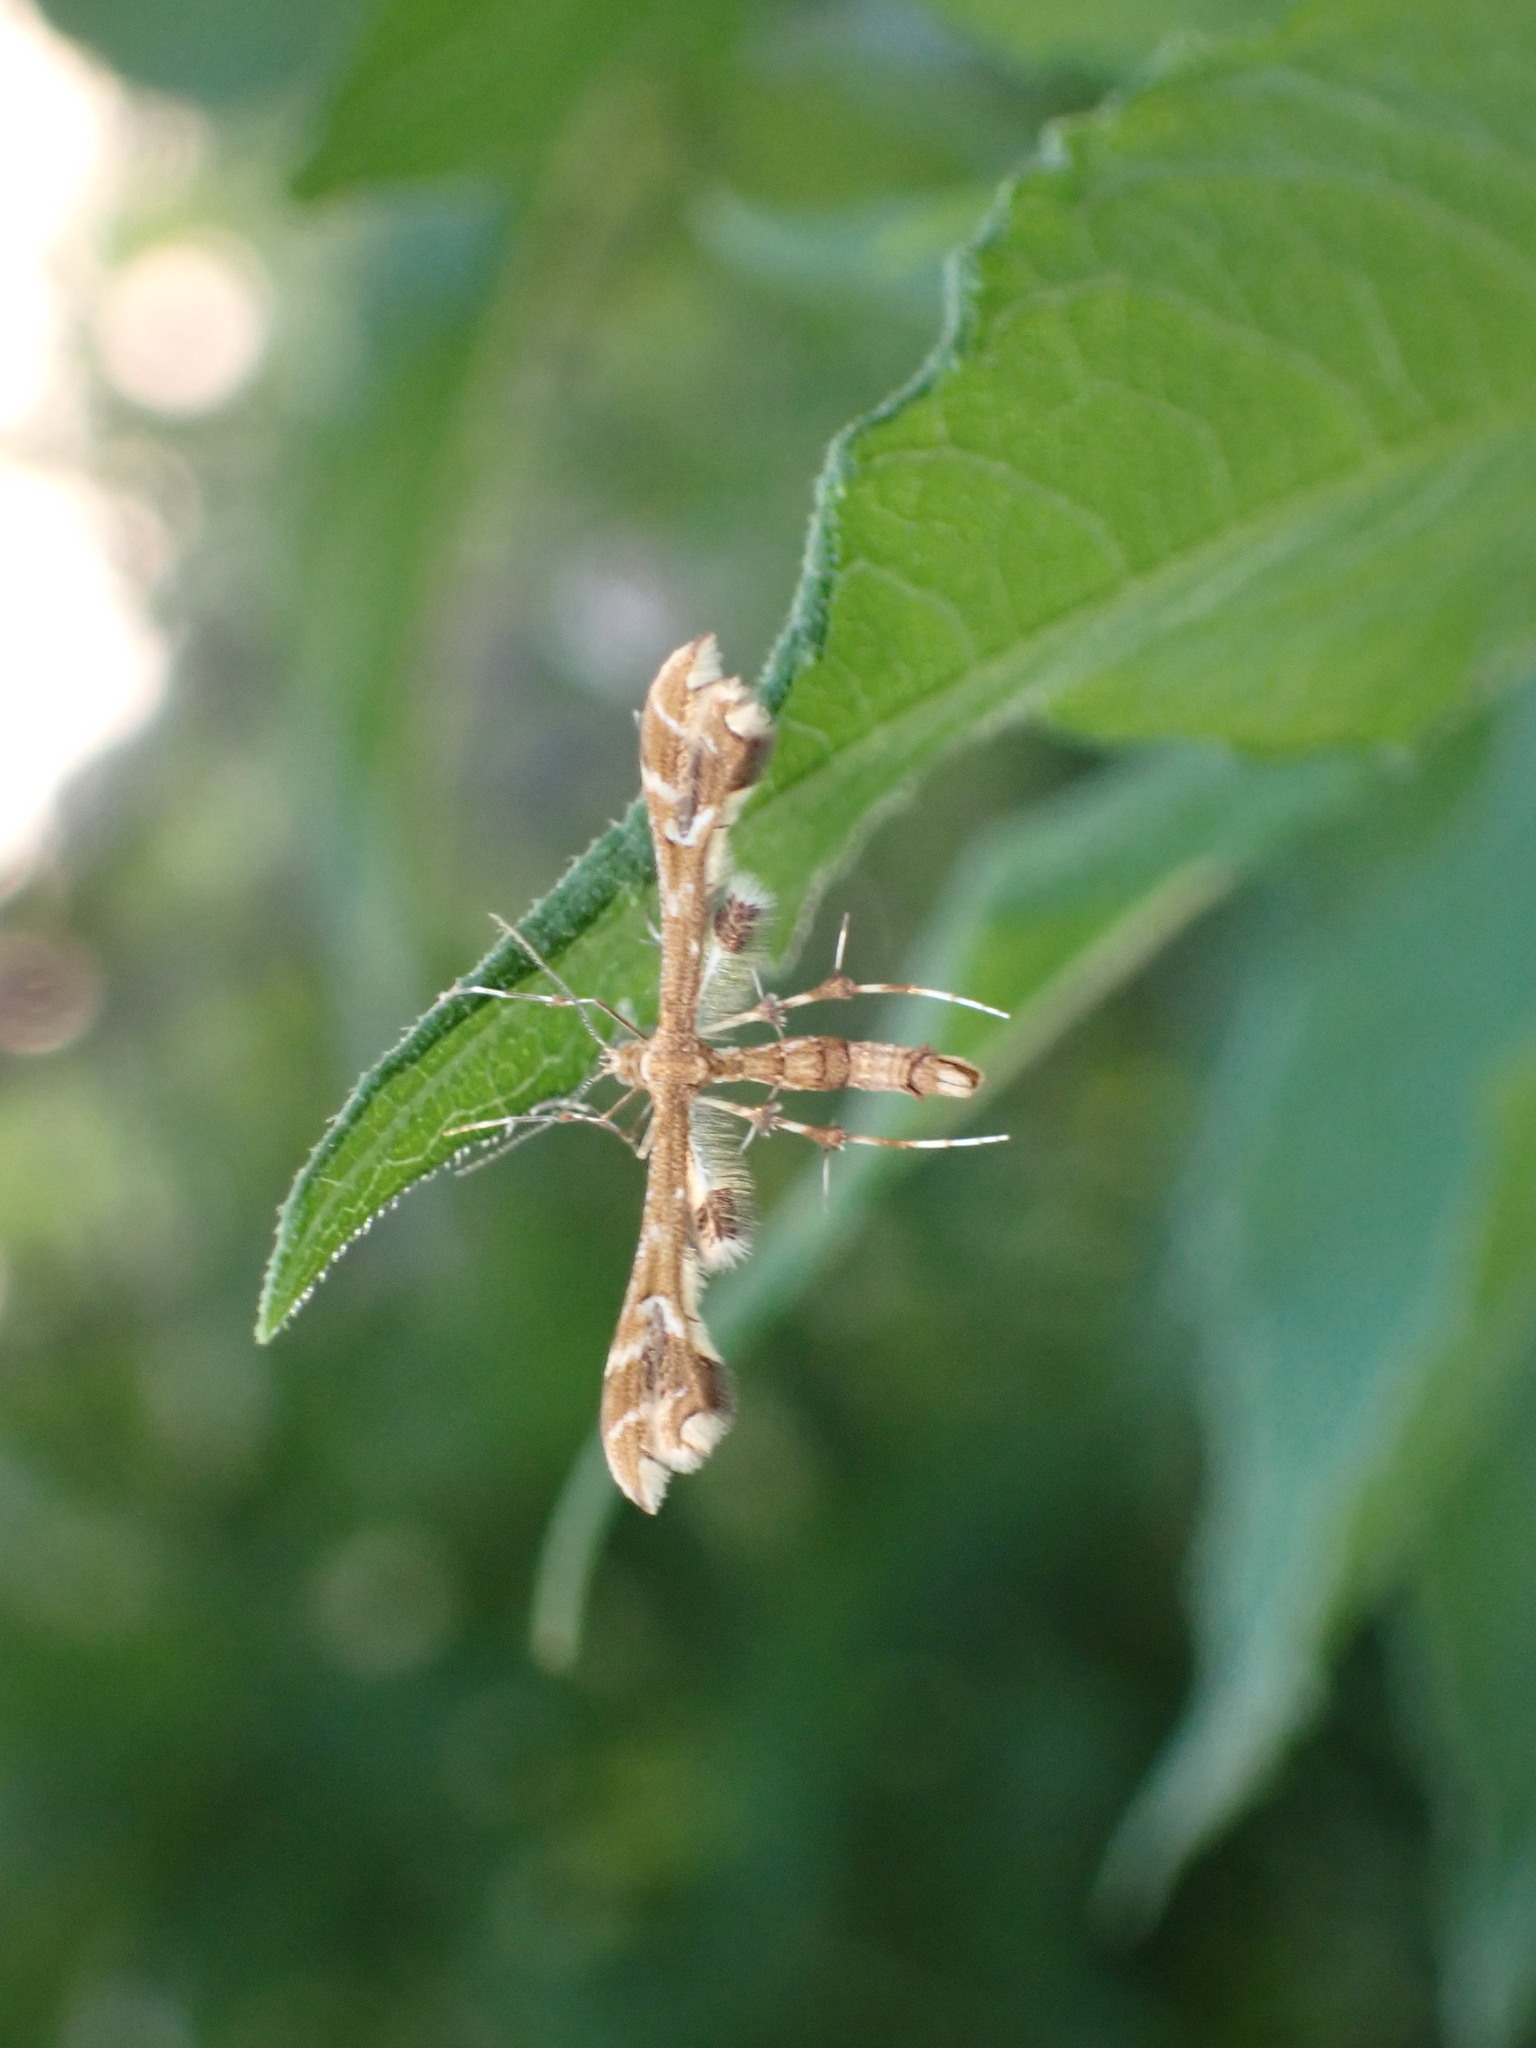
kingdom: Animalia
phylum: Arthropoda
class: Insecta
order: Lepidoptera
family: Pterophoridae
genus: Geina
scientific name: Geina
